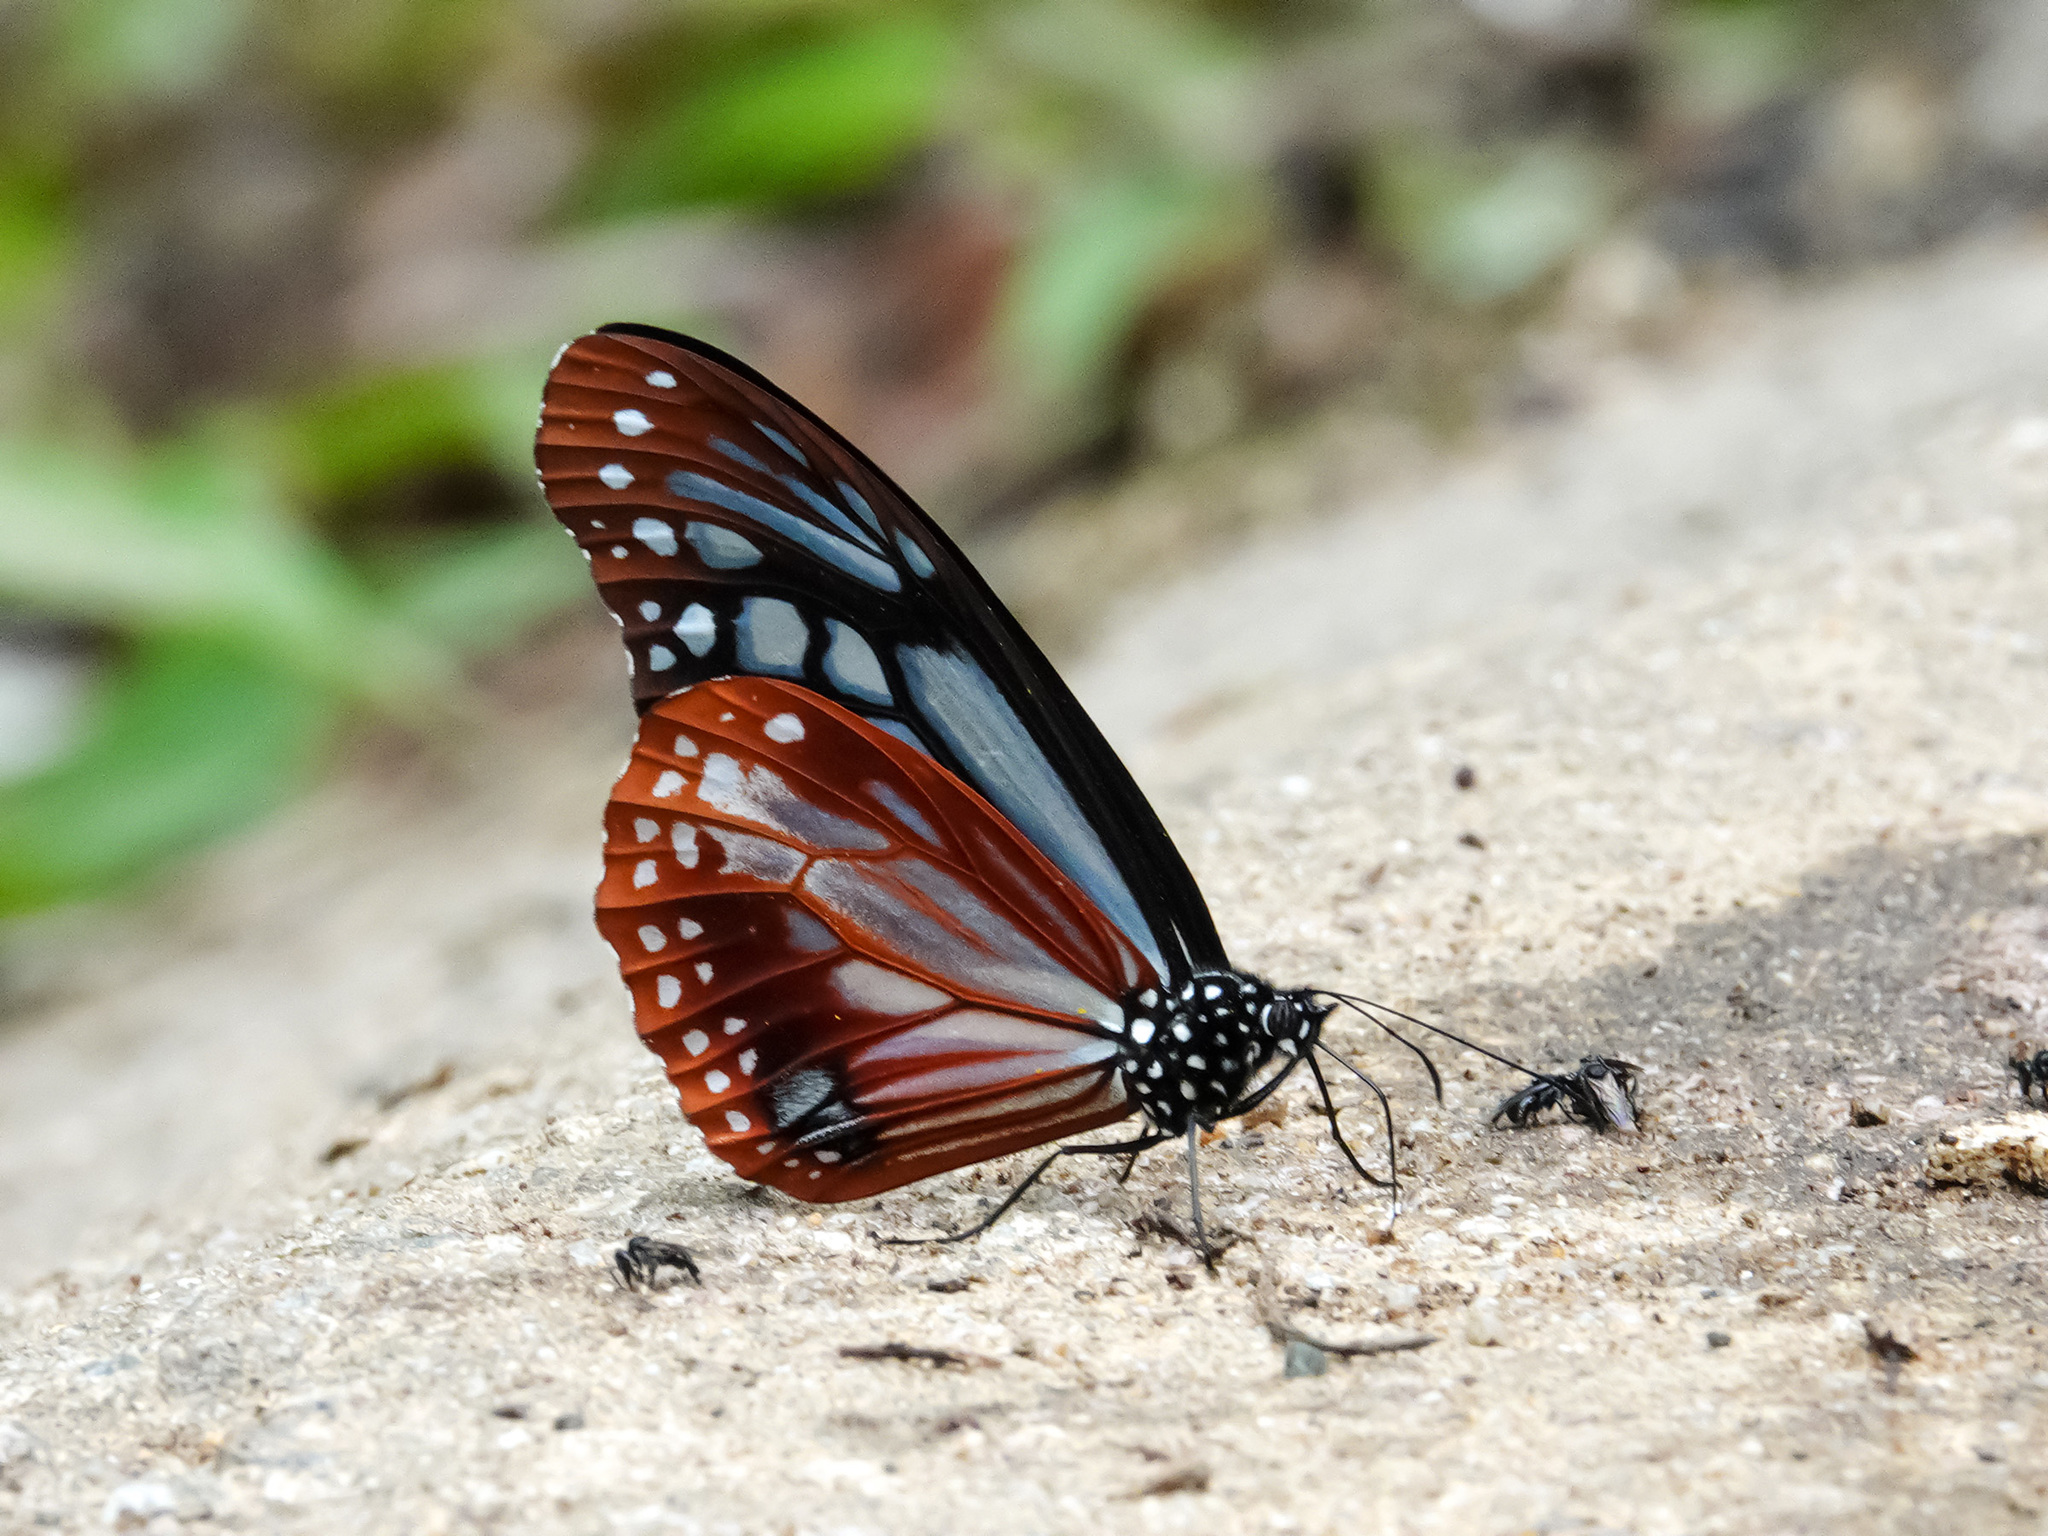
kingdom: Animalia
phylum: Arthropoda
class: Insecta
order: Lepidoptera
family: Nymphalidae
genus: Parantica
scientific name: Parantica sita
